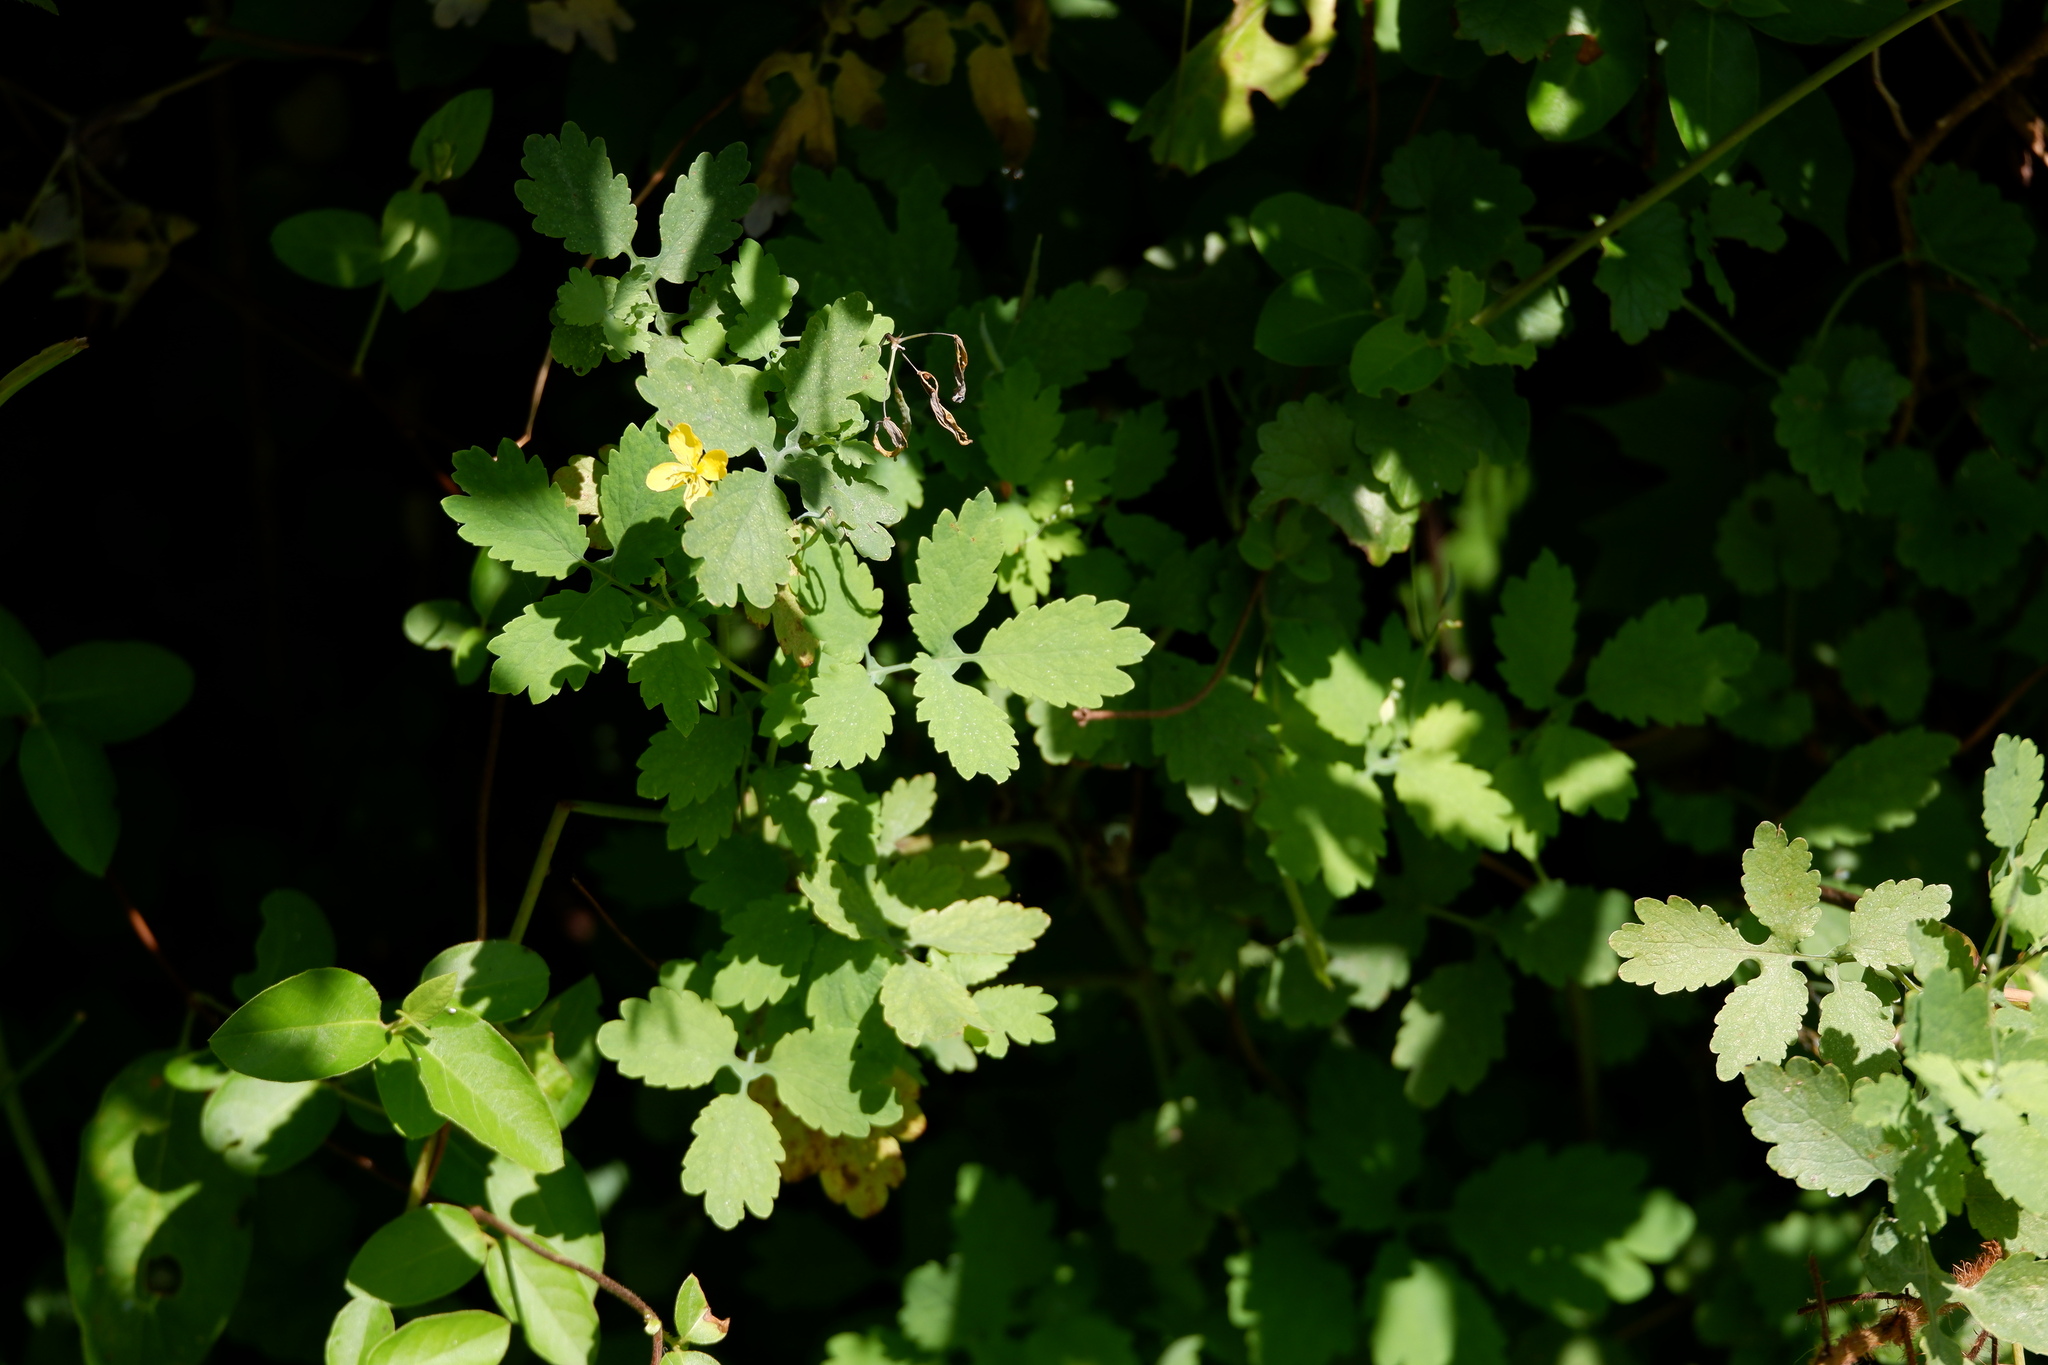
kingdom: Plantae
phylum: Tracheophyta
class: Magnoliopsida
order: Ranunculales
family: Papaveraceae
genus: Chelidonium
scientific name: Chelidonium majus
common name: Greater celandine
